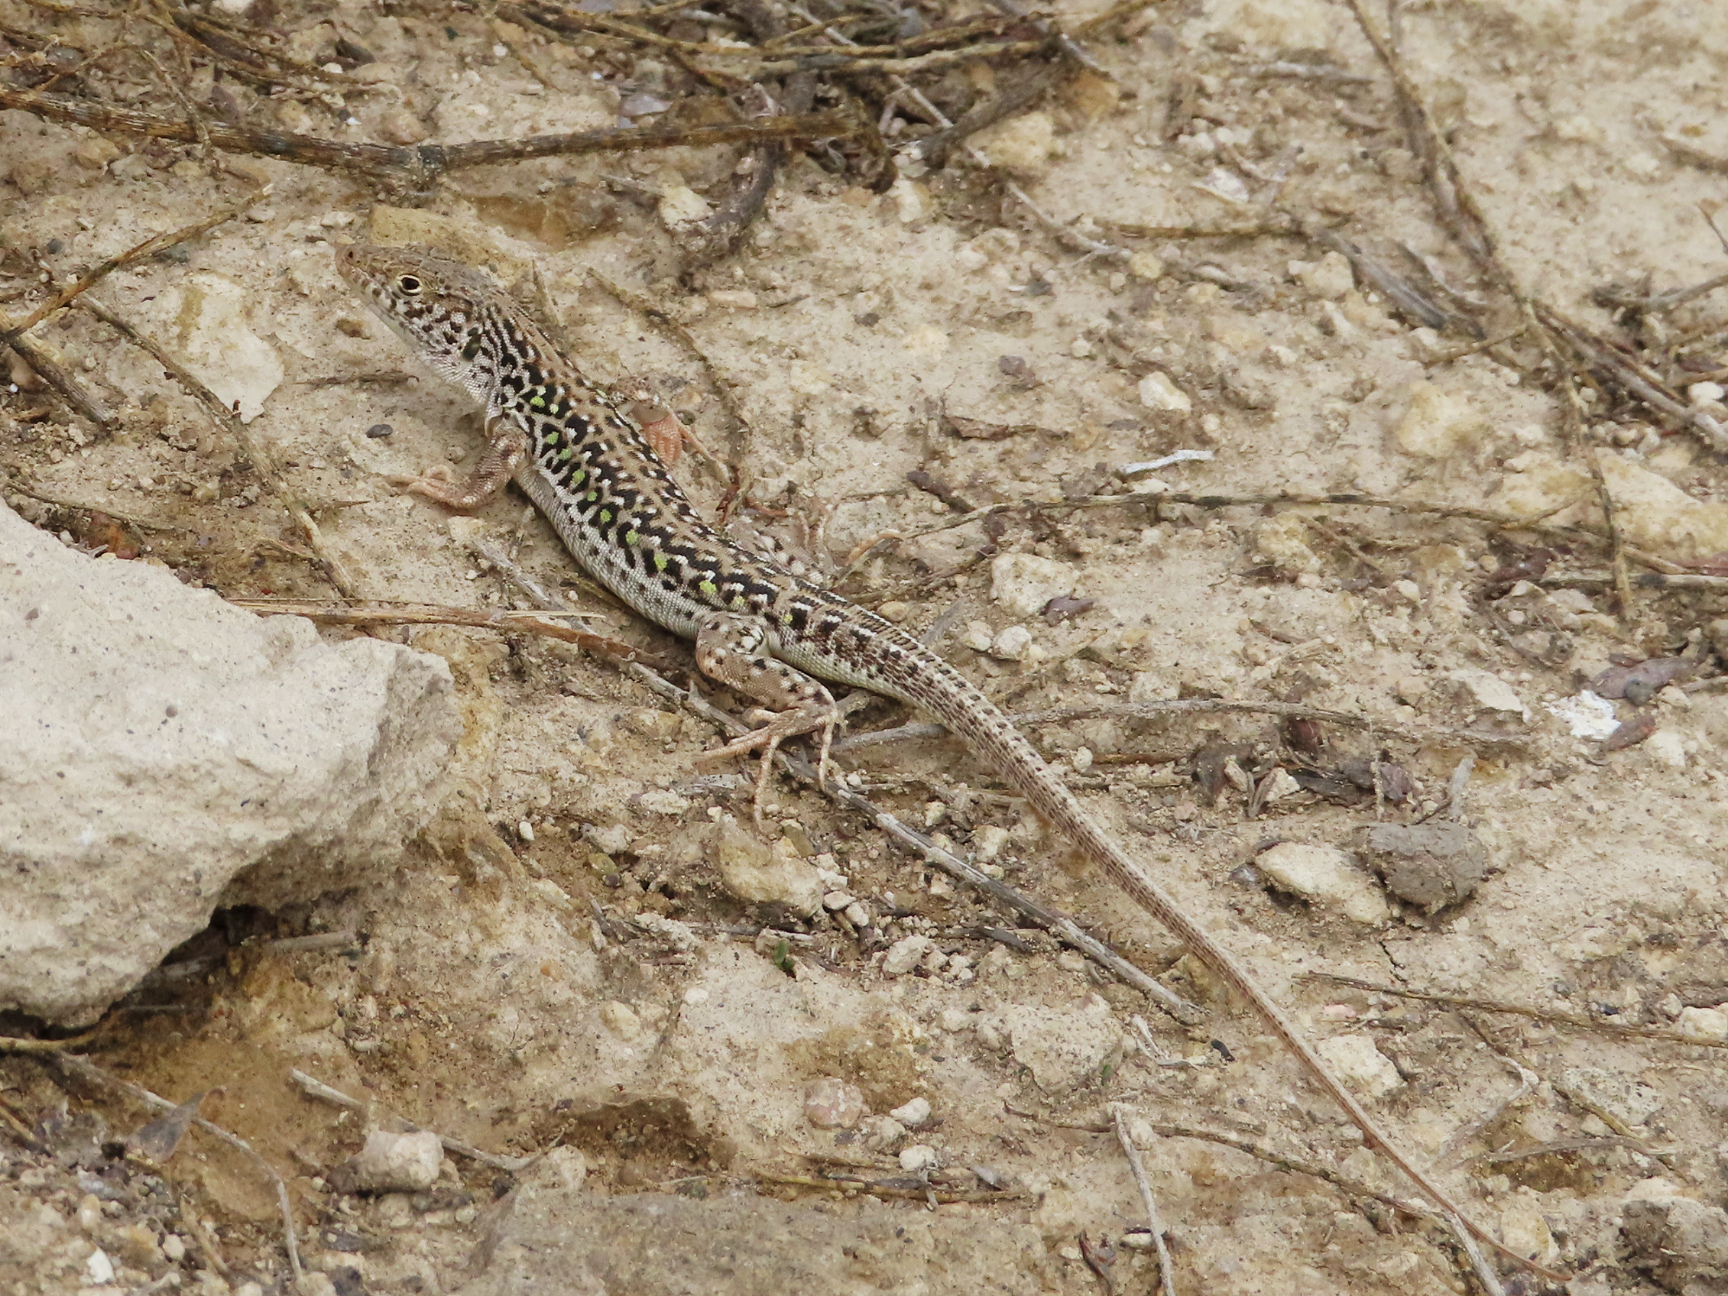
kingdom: Animalia
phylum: Chordata
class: Squamata
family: Lacertidae
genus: Eremias
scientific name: Eremias strauchi
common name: Strauch's racerunner
